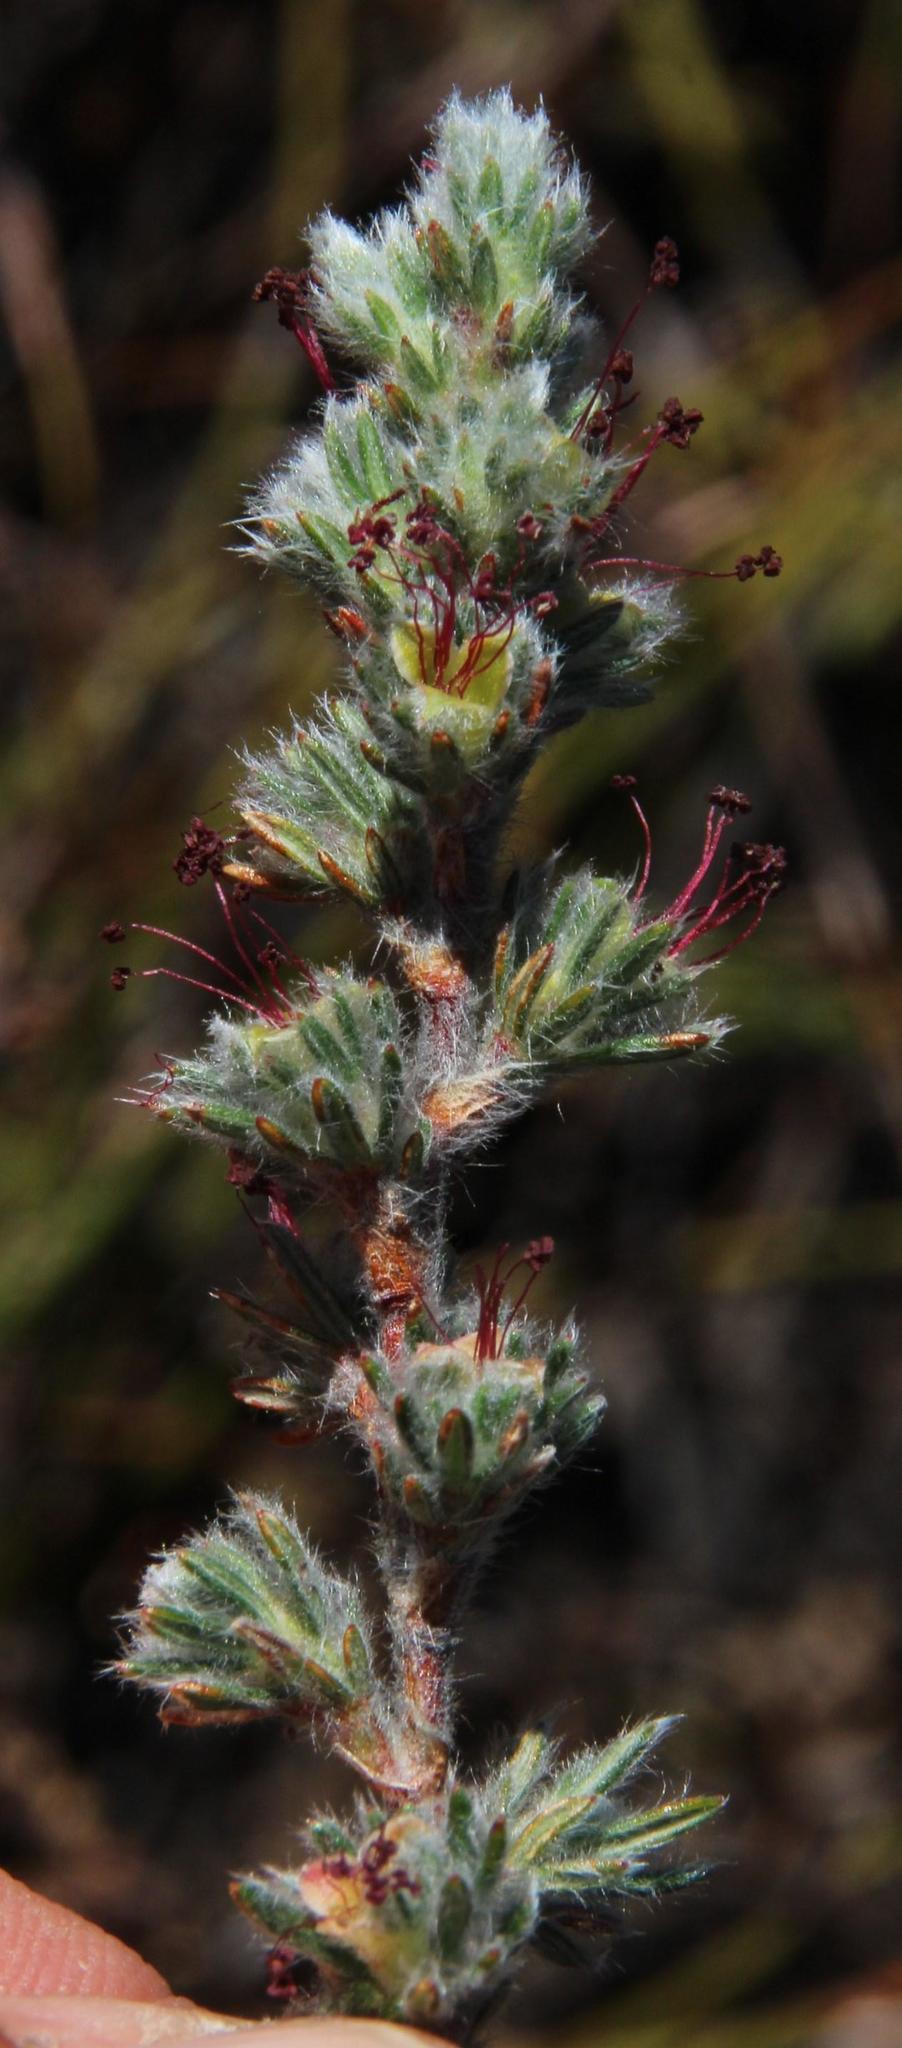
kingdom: Plantae
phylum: Tracheophyta
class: Magnoliopsida
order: Rosales
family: Rosaceae
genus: Cliffortia
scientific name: Cliffortia weimarckii
